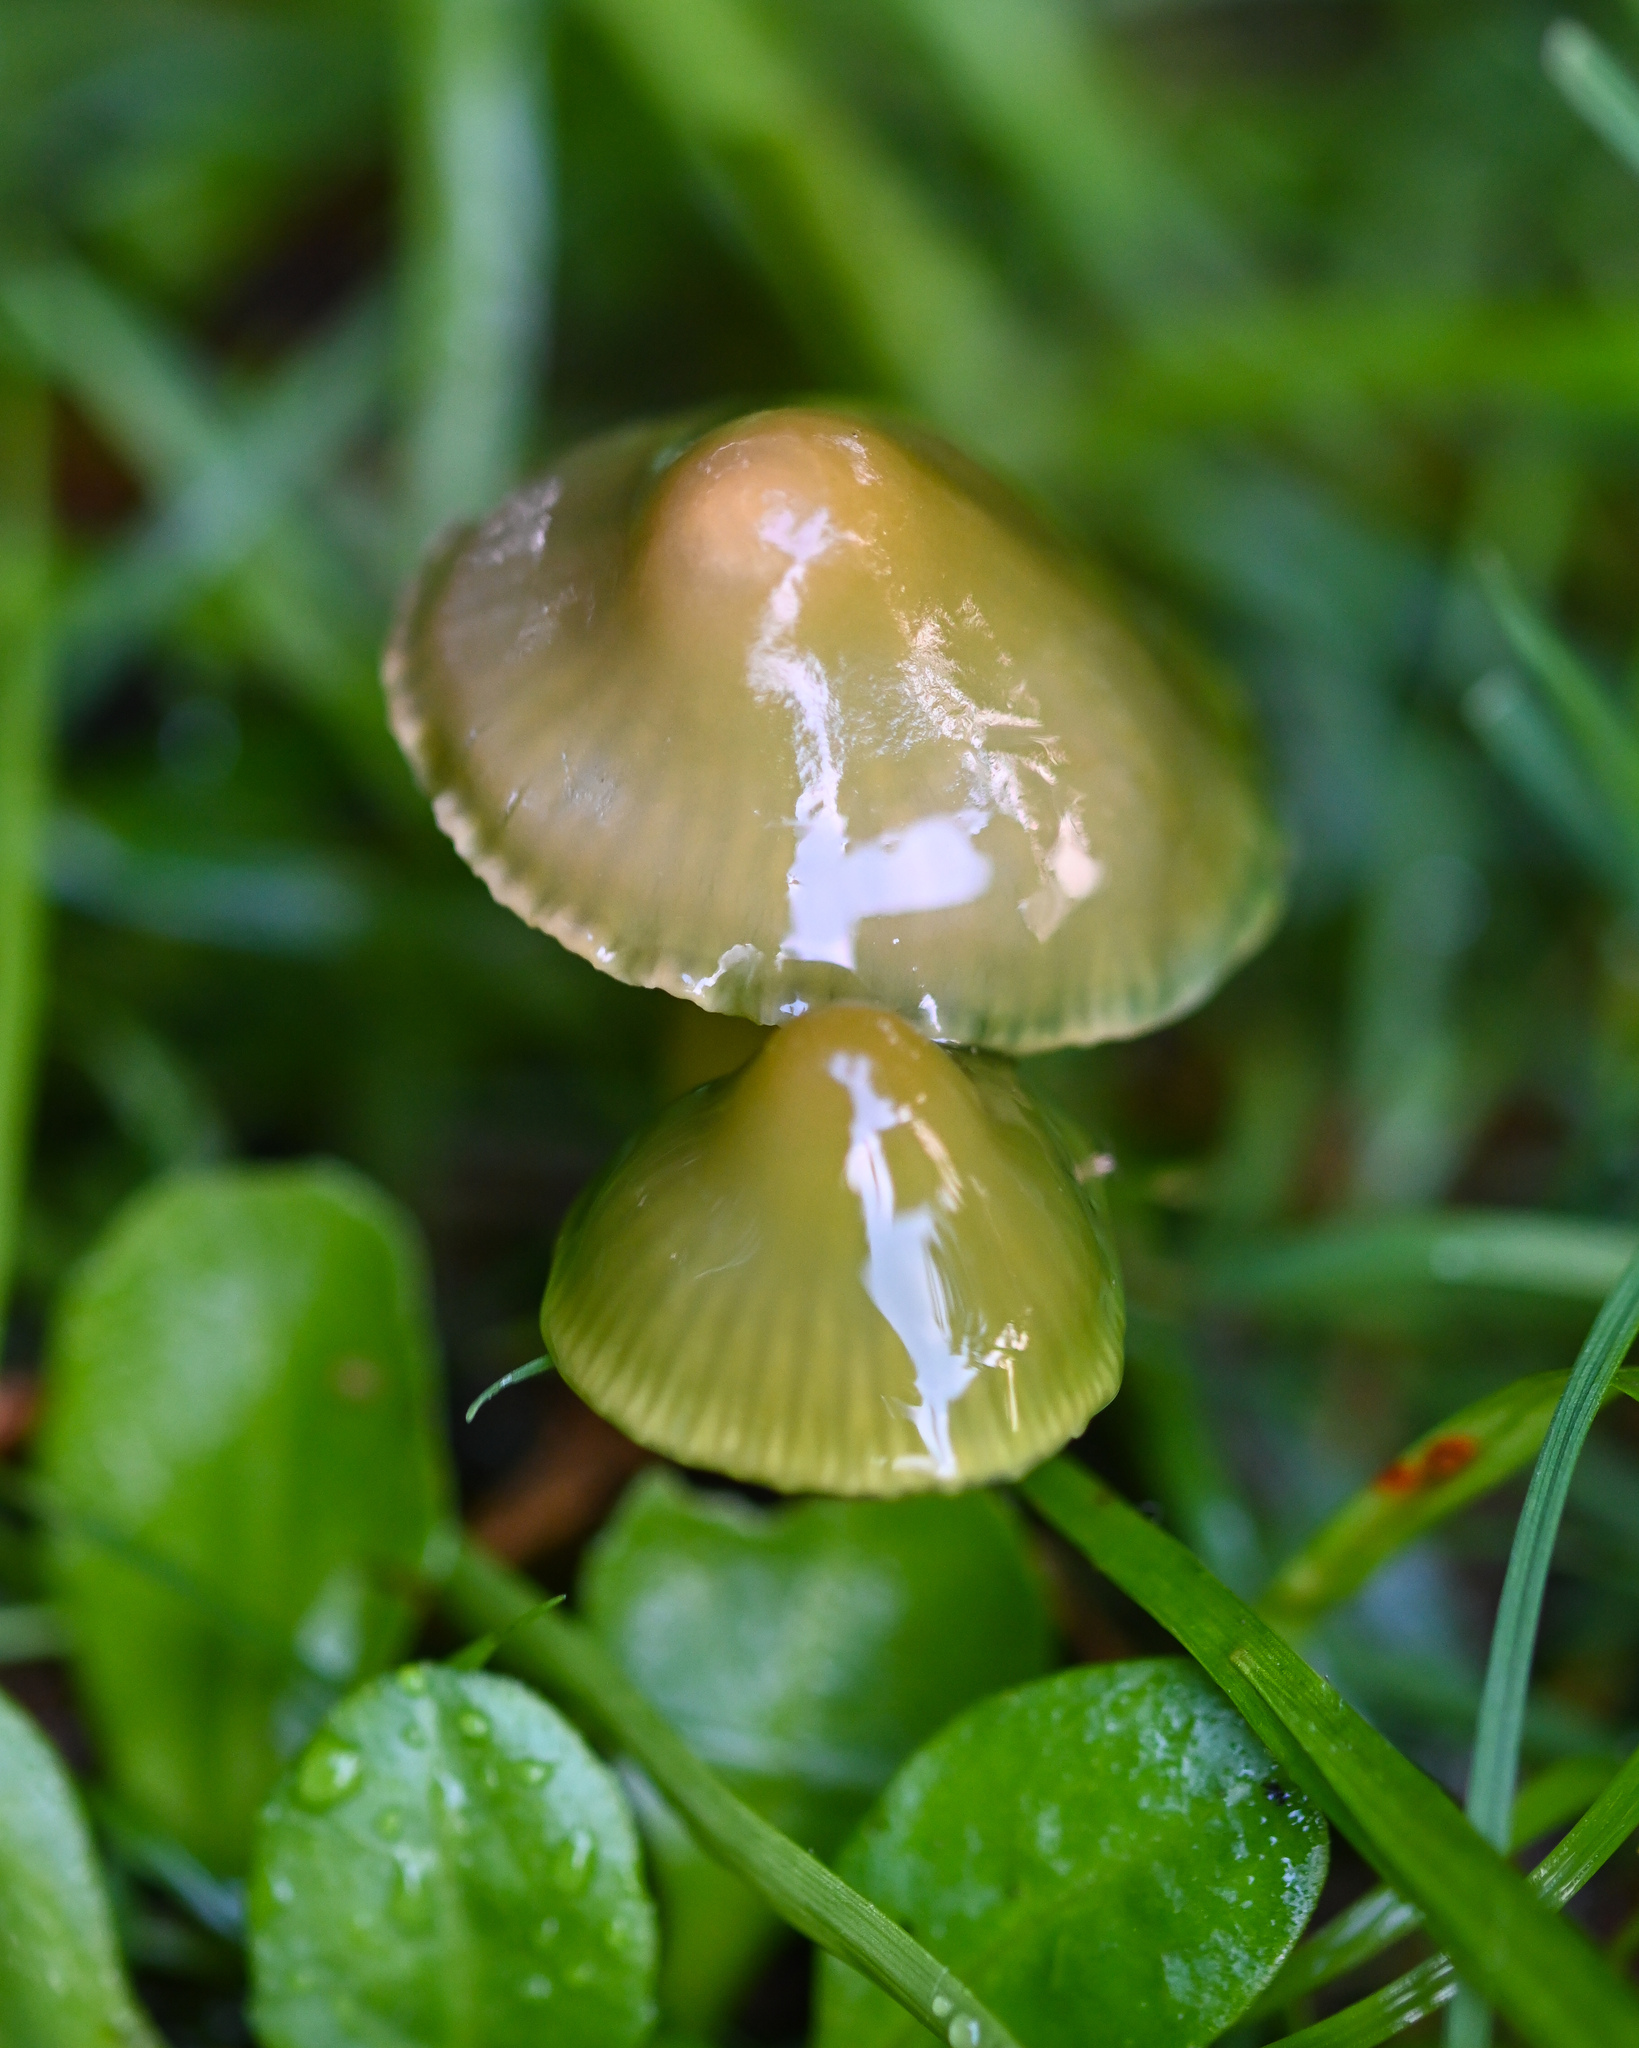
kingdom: Fungi
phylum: Basidiomycota
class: Agaricomycetes
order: Agaricales
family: Hygrophoraceae
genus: Gliophorus
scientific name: Gliophorus psittacinus
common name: Parrot wax-cap
